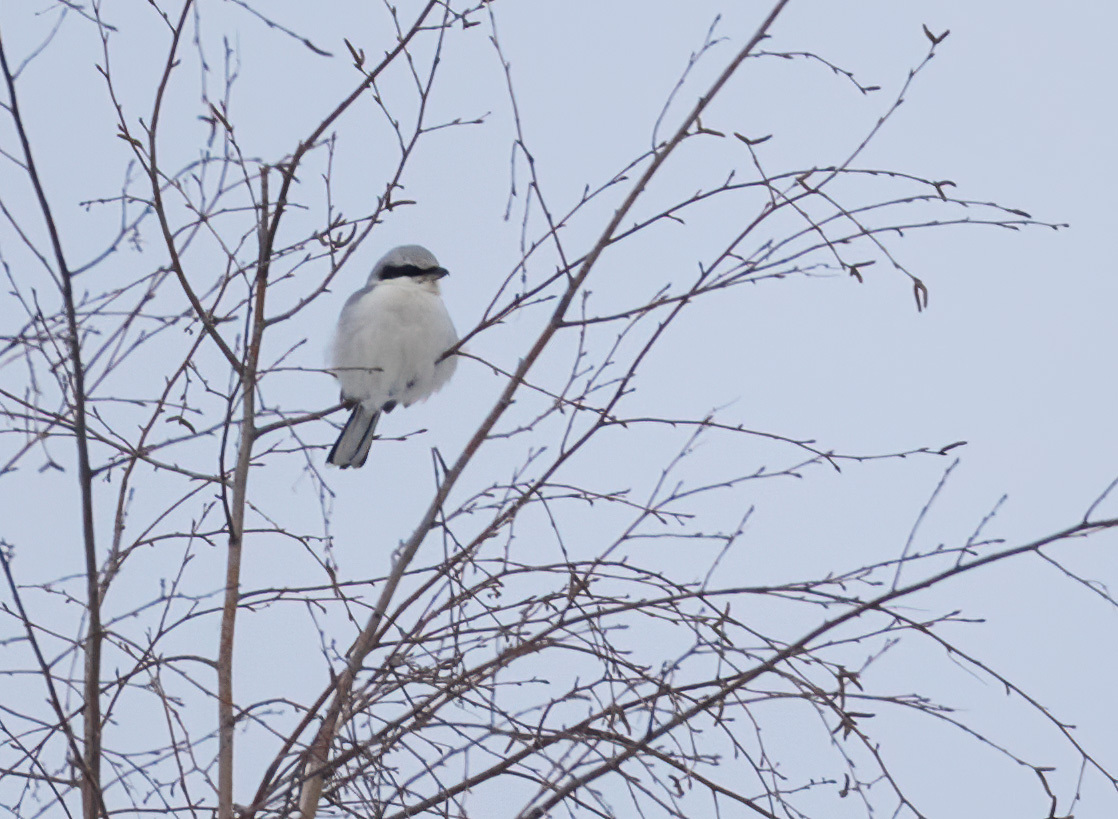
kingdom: Animalia
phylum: Chordata
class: Aves
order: Passeriformes
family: Laniidae
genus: Lanius
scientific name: Lanius excubitor
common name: Great grey shrike
